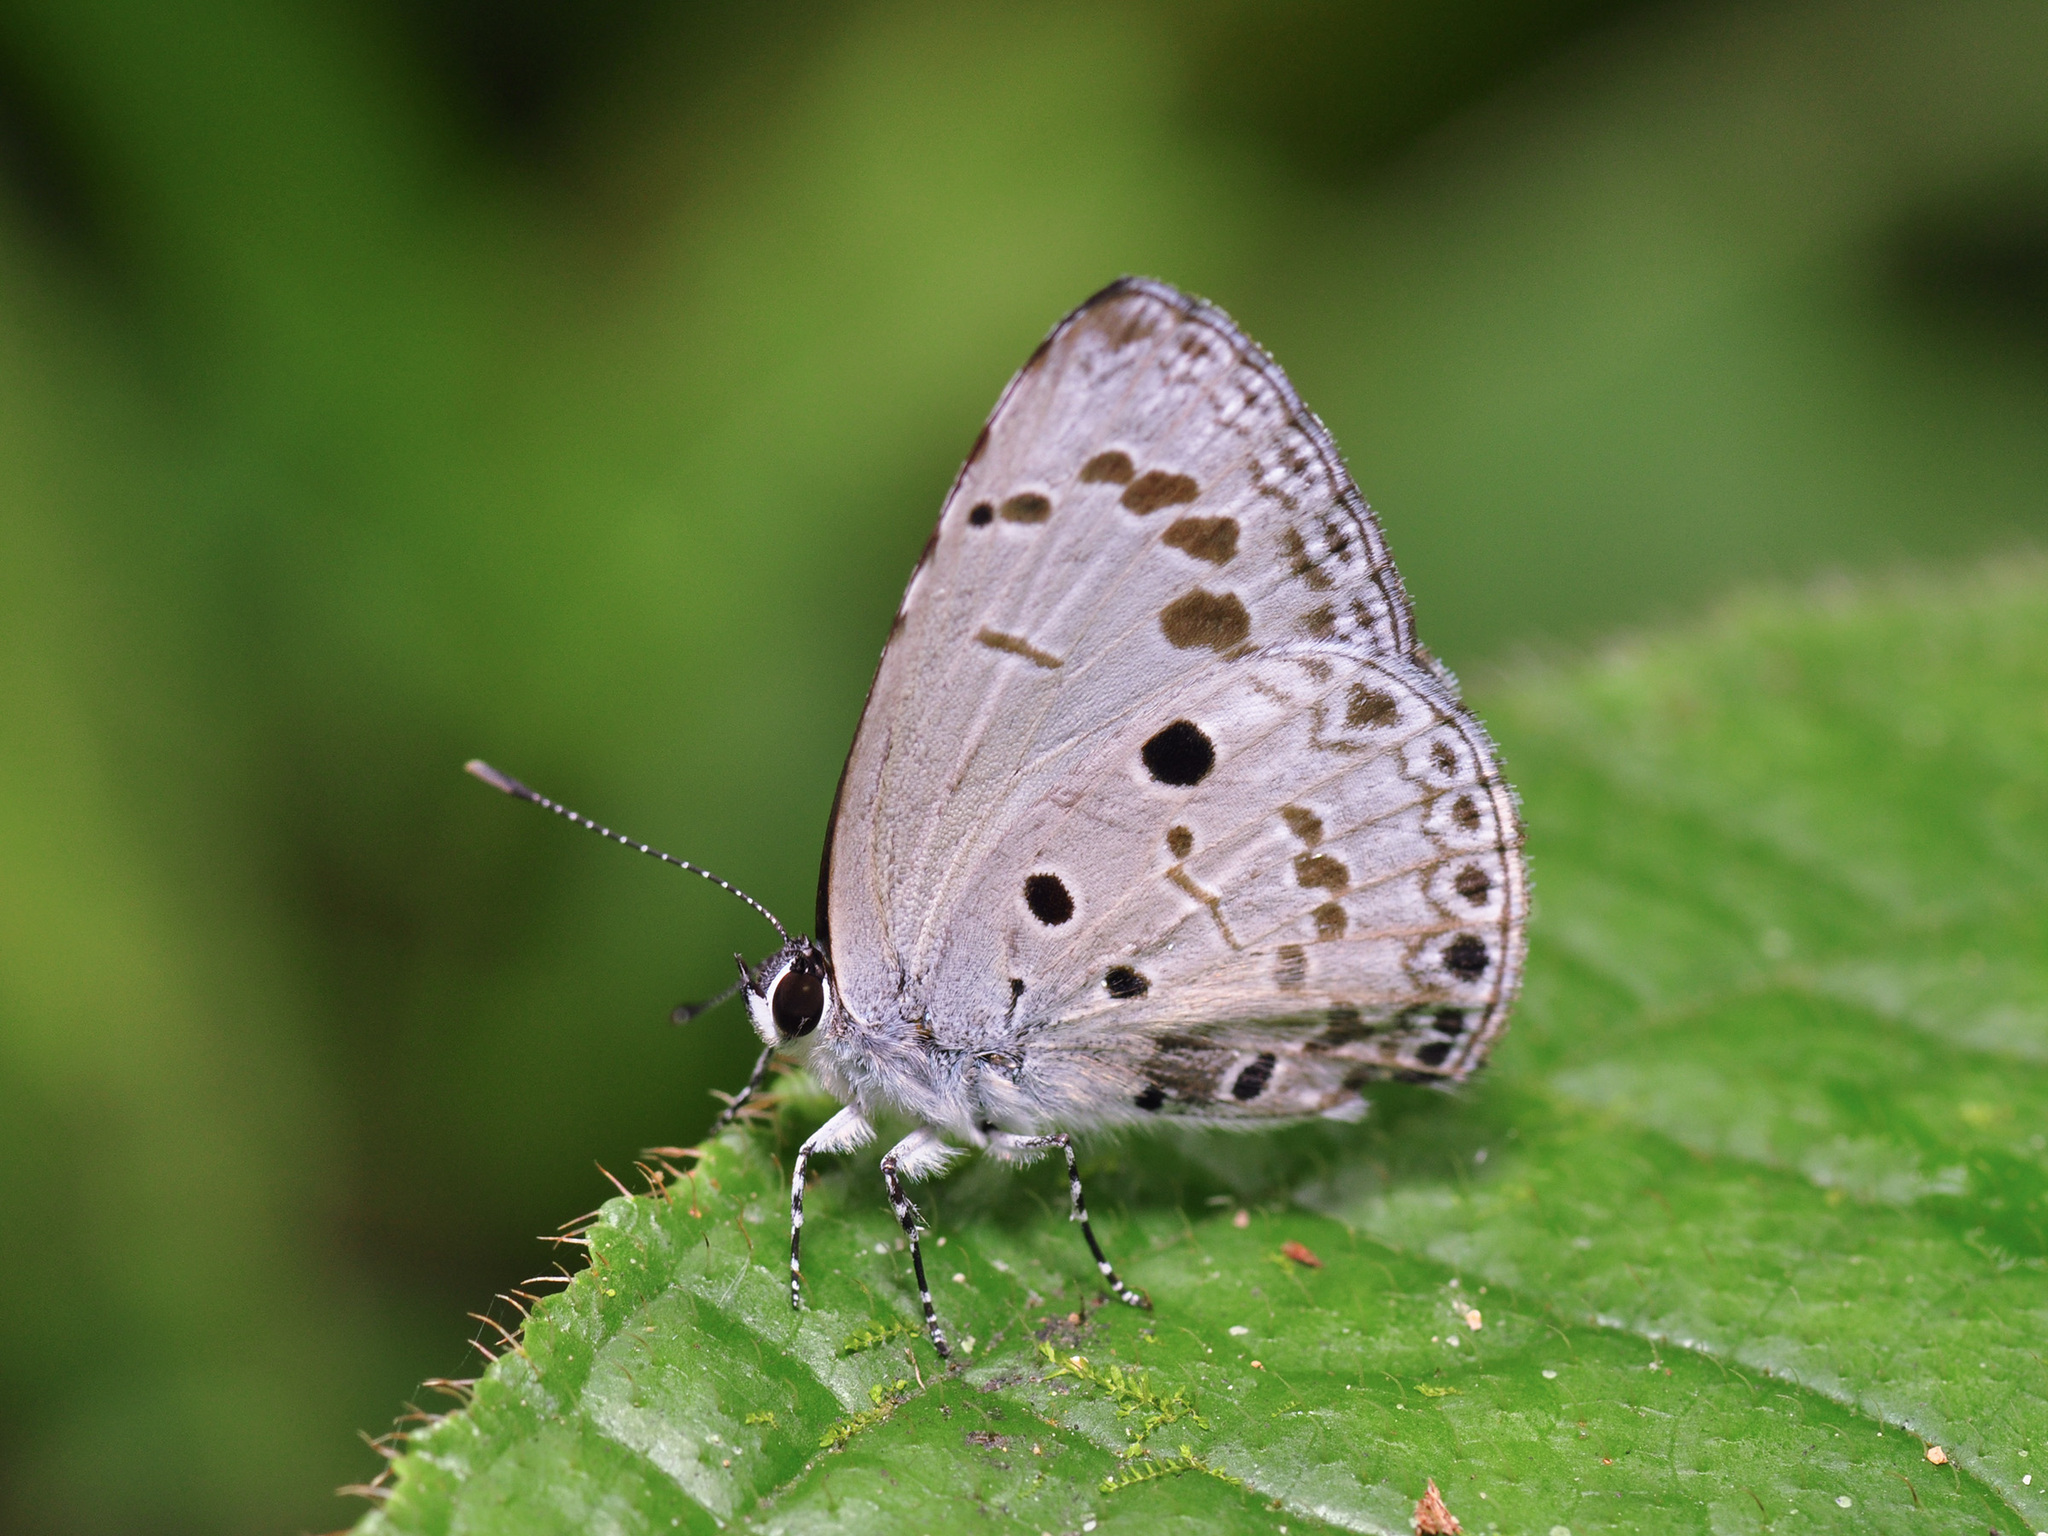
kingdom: Animalia
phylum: Arthropoda
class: Insecta
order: Lepidoptera
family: Lycaenidae
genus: Acytolepis
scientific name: Acytolepis puspa
